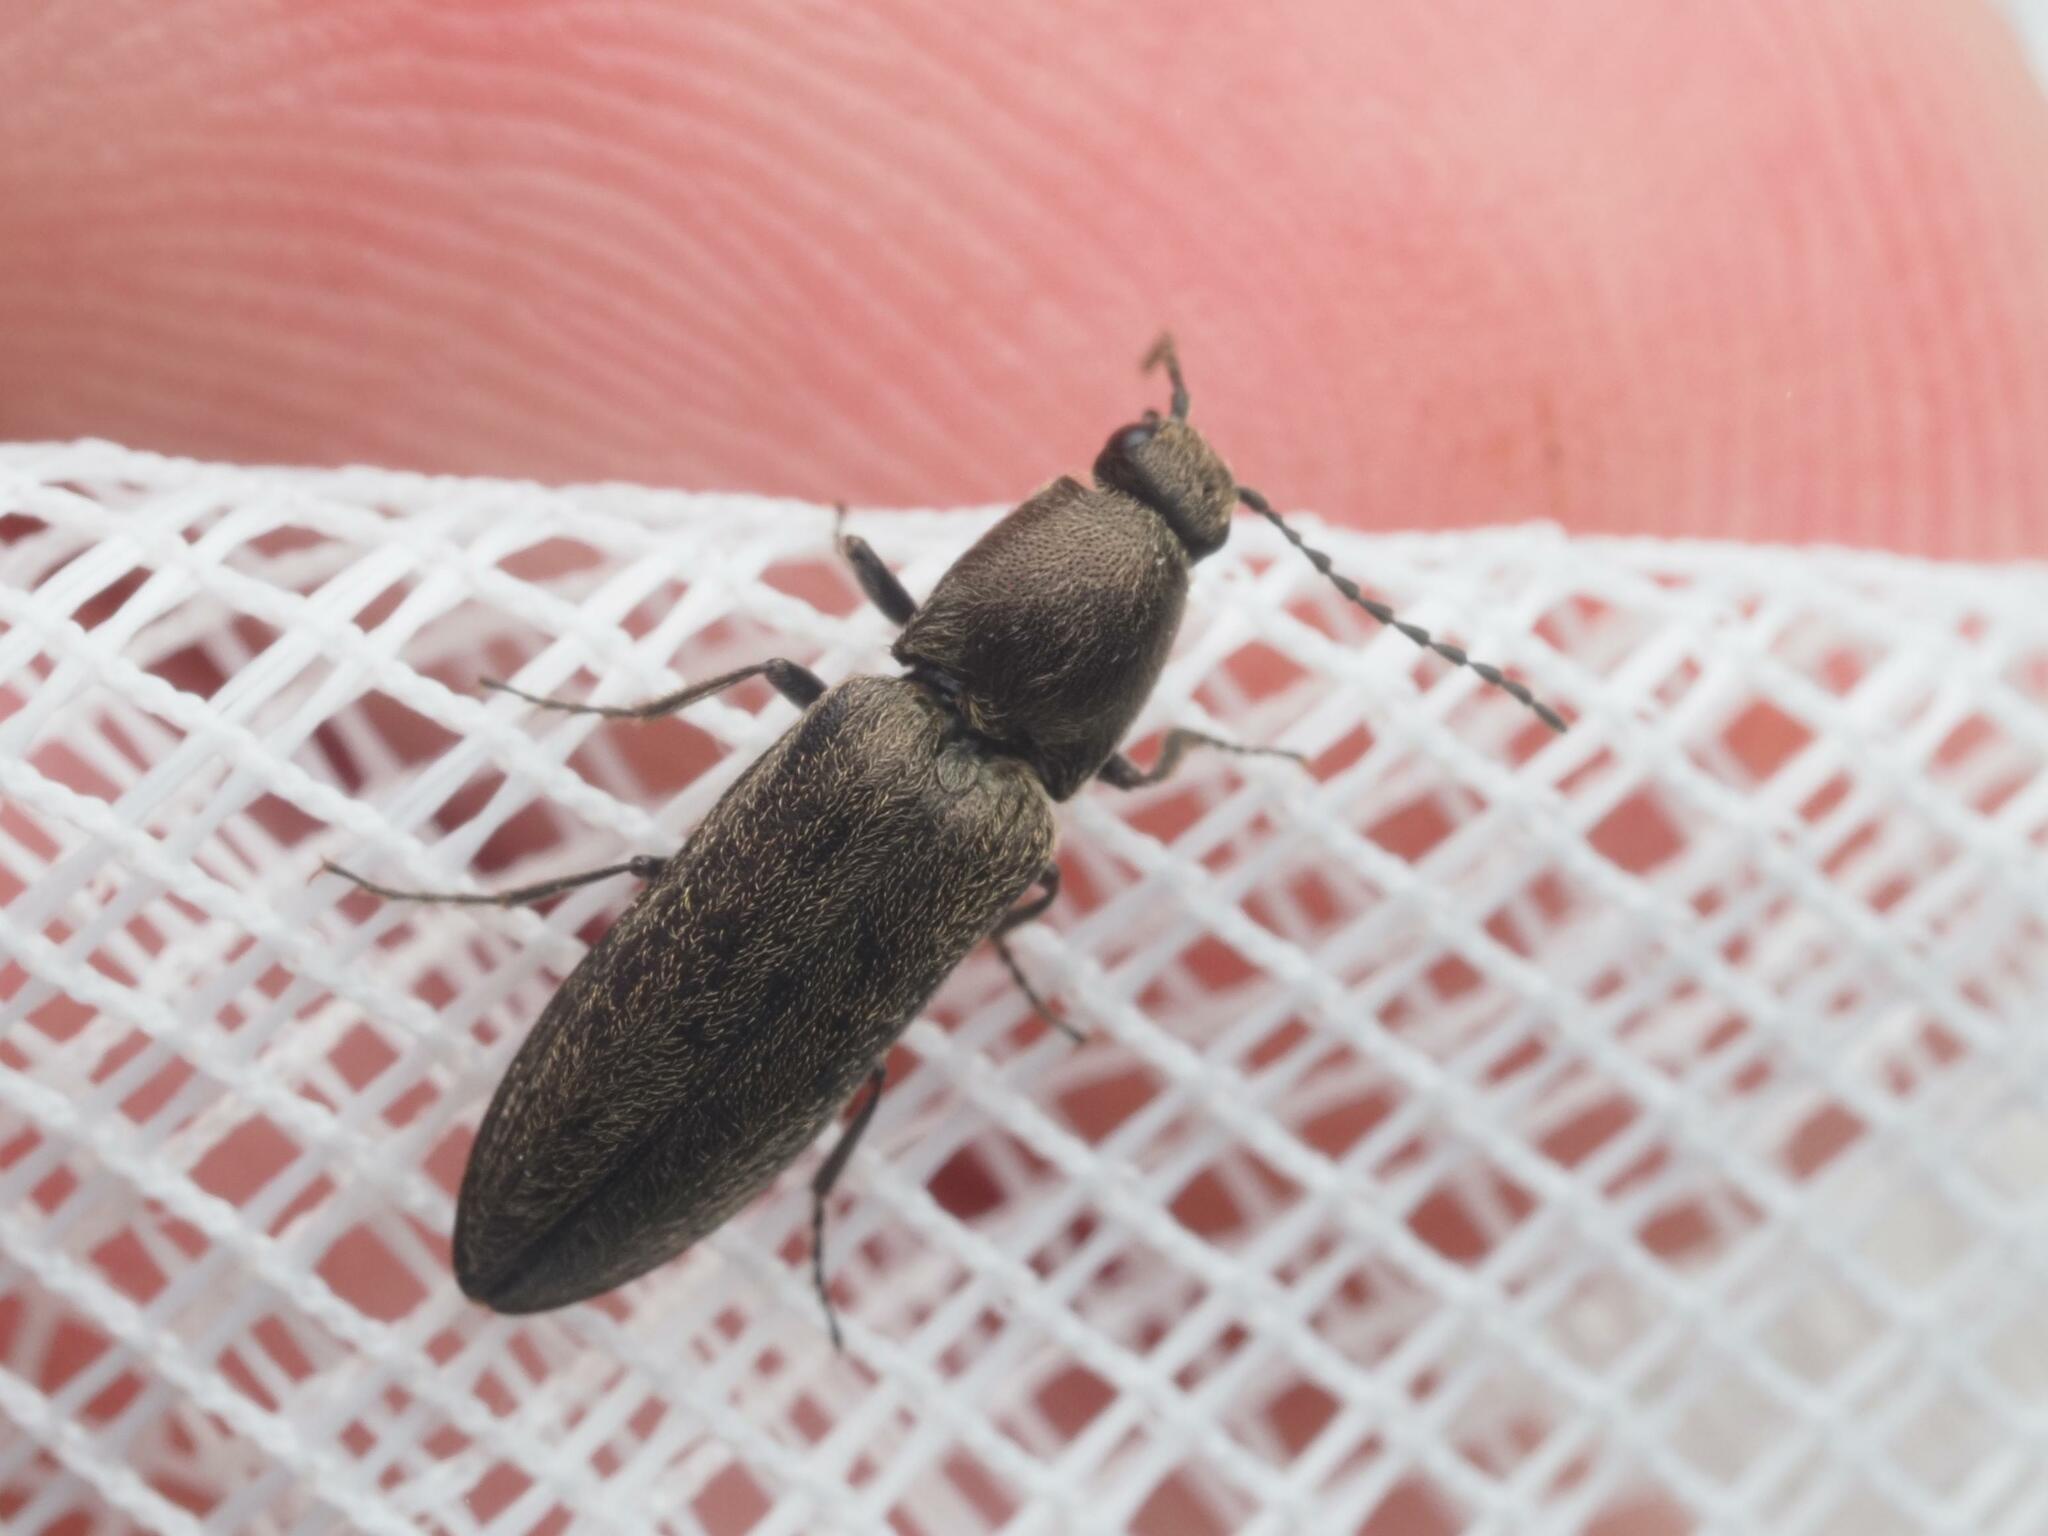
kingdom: Animalia
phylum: Arthropoda
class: Insecta
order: Coleoptera
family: Elateridae
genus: Cidnopus
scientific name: Cidnopus aeruginosus
